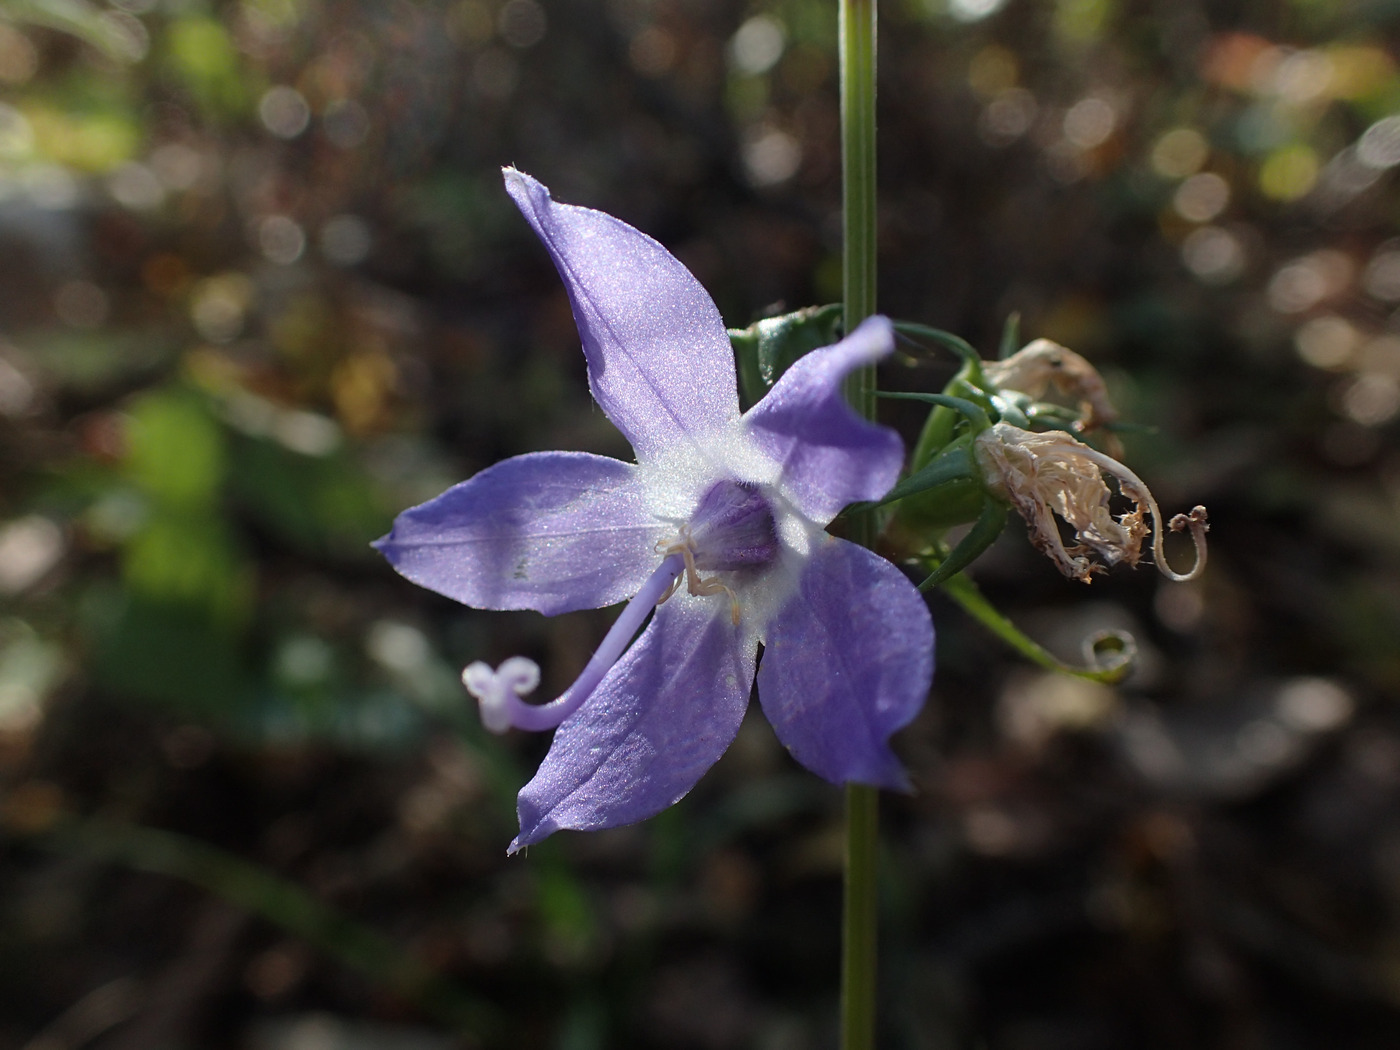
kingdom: Plantae
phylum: Tracheophyta
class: Magnoliopsida
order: Asterales
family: Campanulaceae
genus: Campanulastrum
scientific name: Campanulastrum americanum
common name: American bellflower
